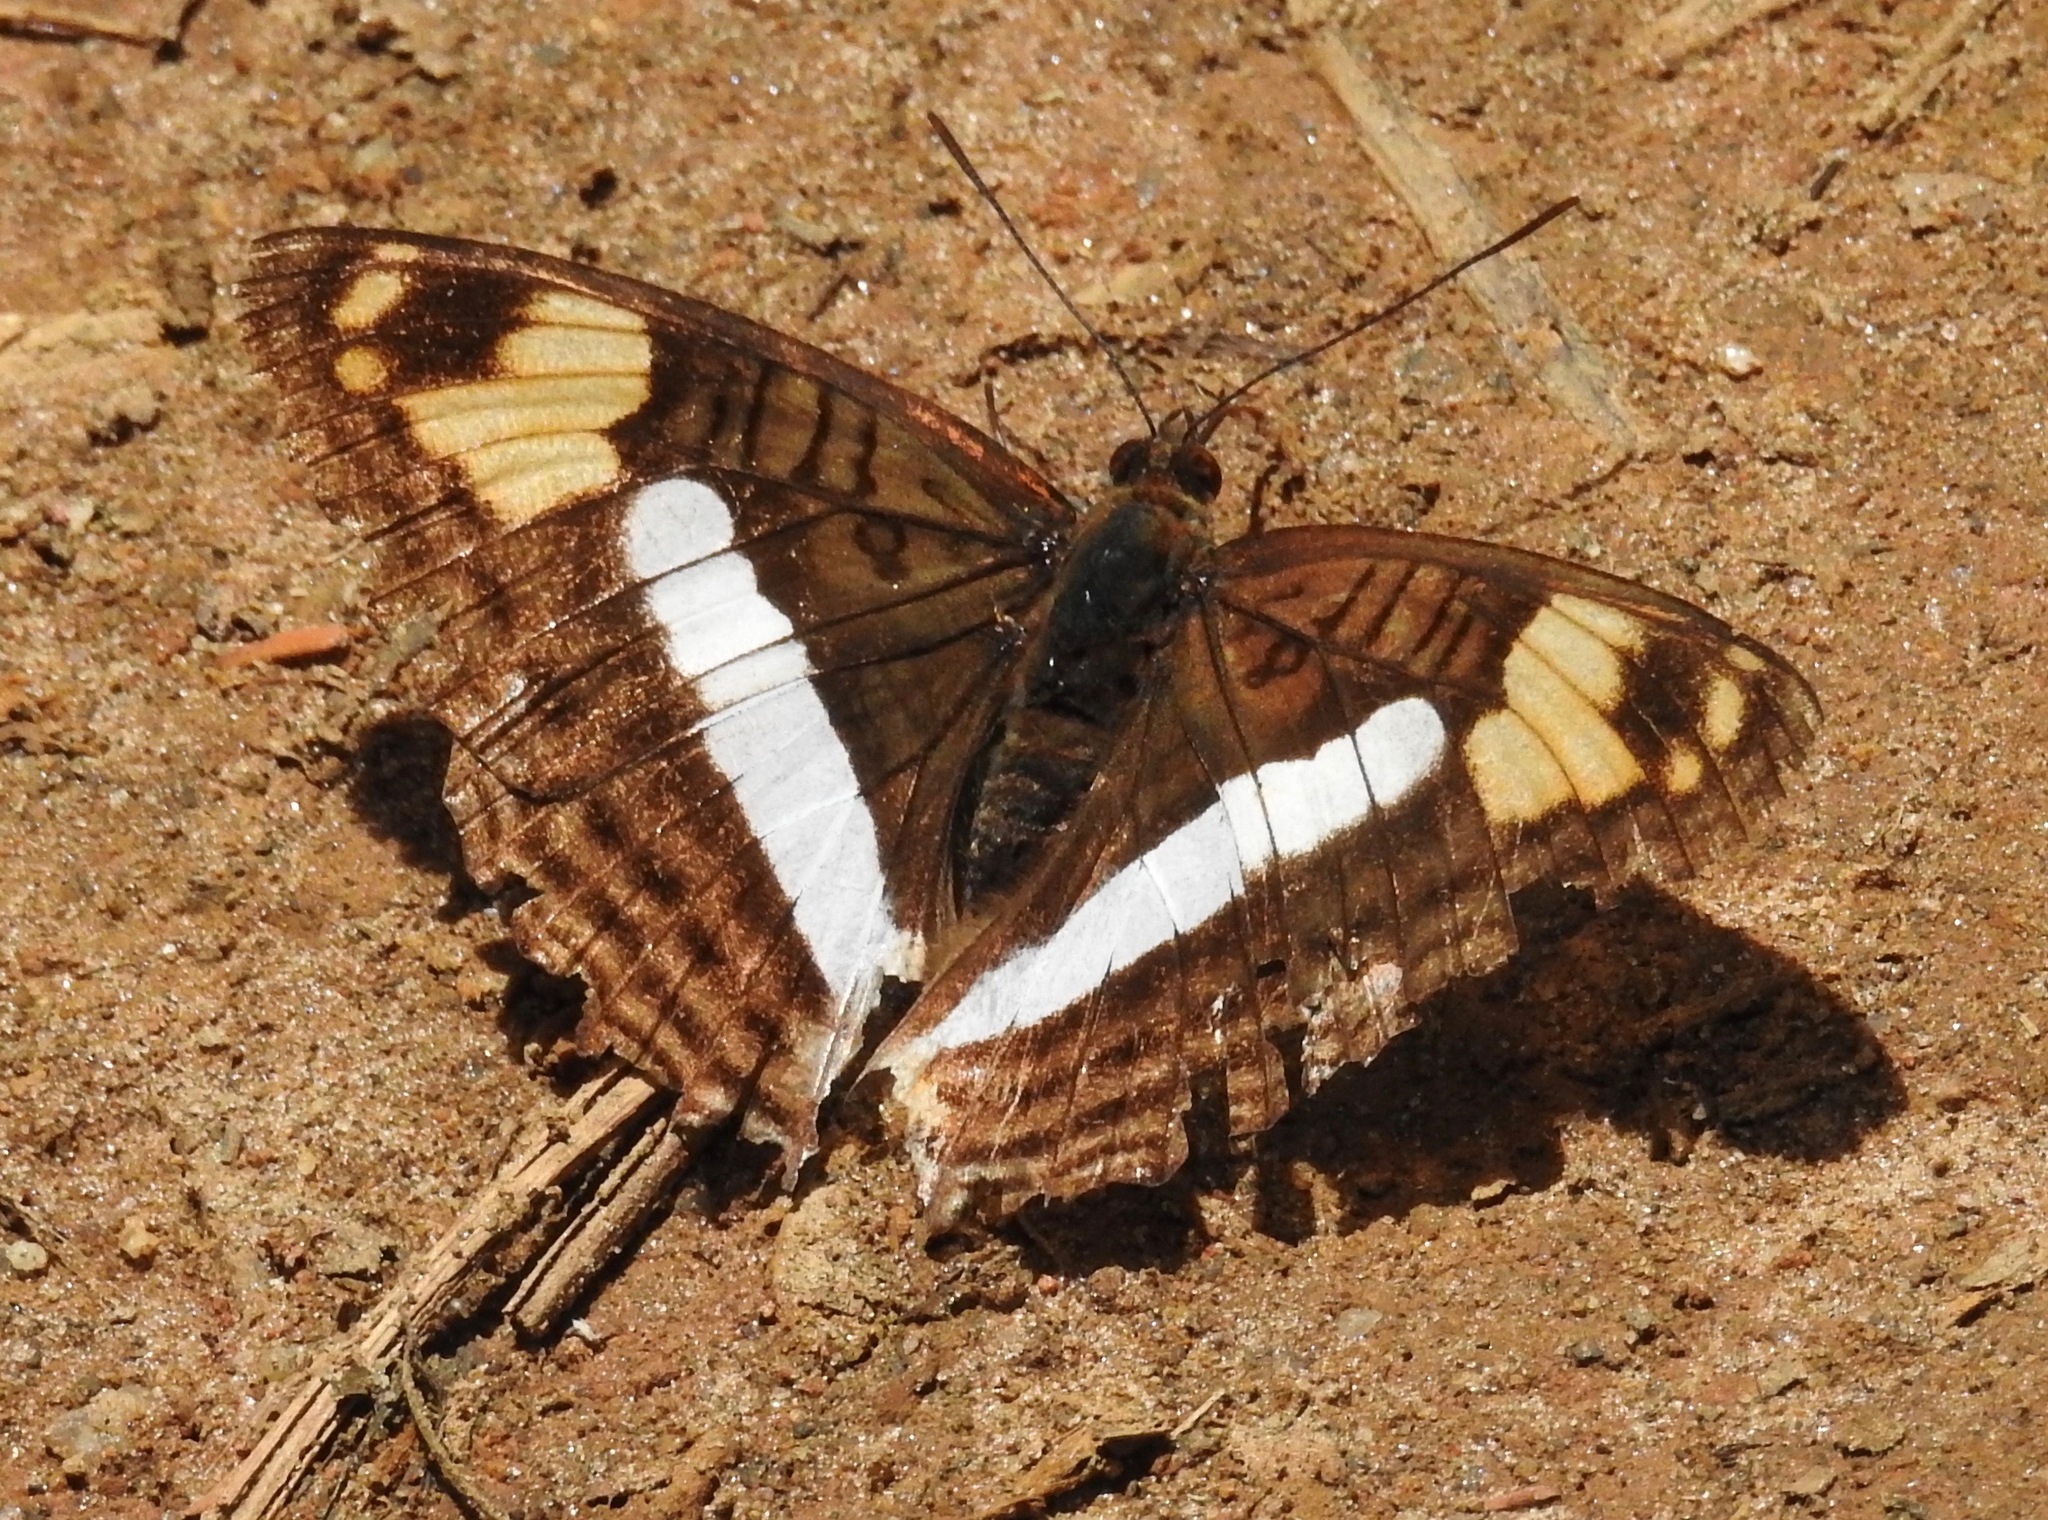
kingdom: Animalia
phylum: Arthropoda
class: Insecta
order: Lepidoptera
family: Nymphalidae
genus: Limenitis
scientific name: Limenitis Adelpha erotia
